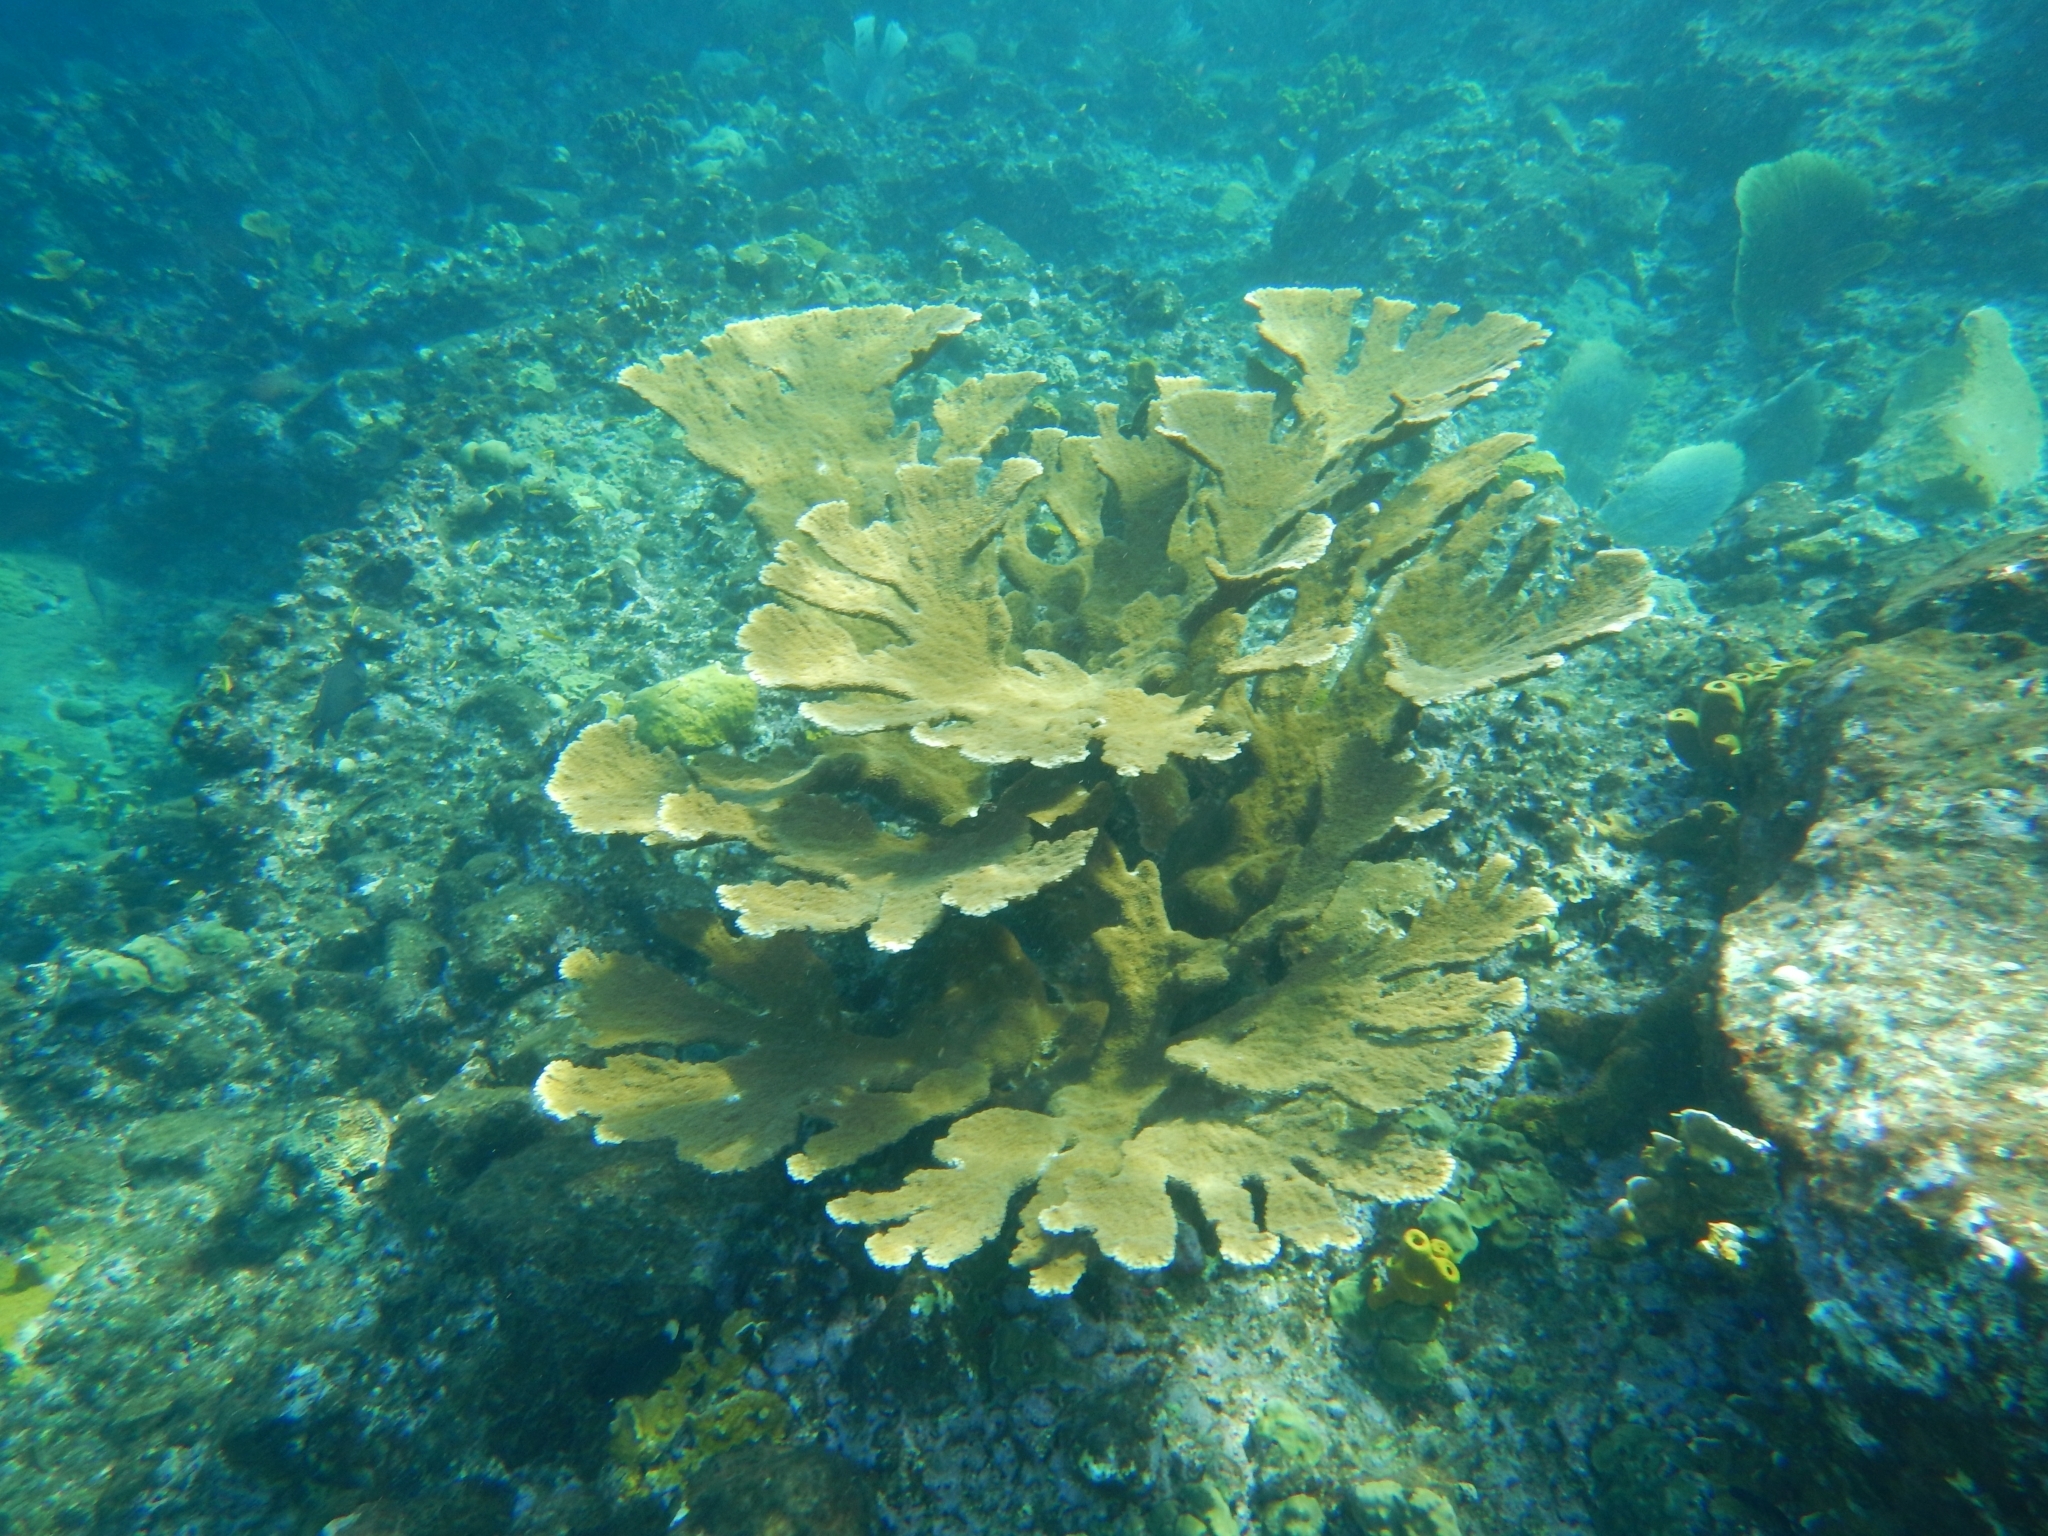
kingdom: Animalia
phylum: Cnidaria
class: Anthozoa
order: Scleractinia
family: Acroporidae
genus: Acropora
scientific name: Acropora palmata
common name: Elkhorn coral
